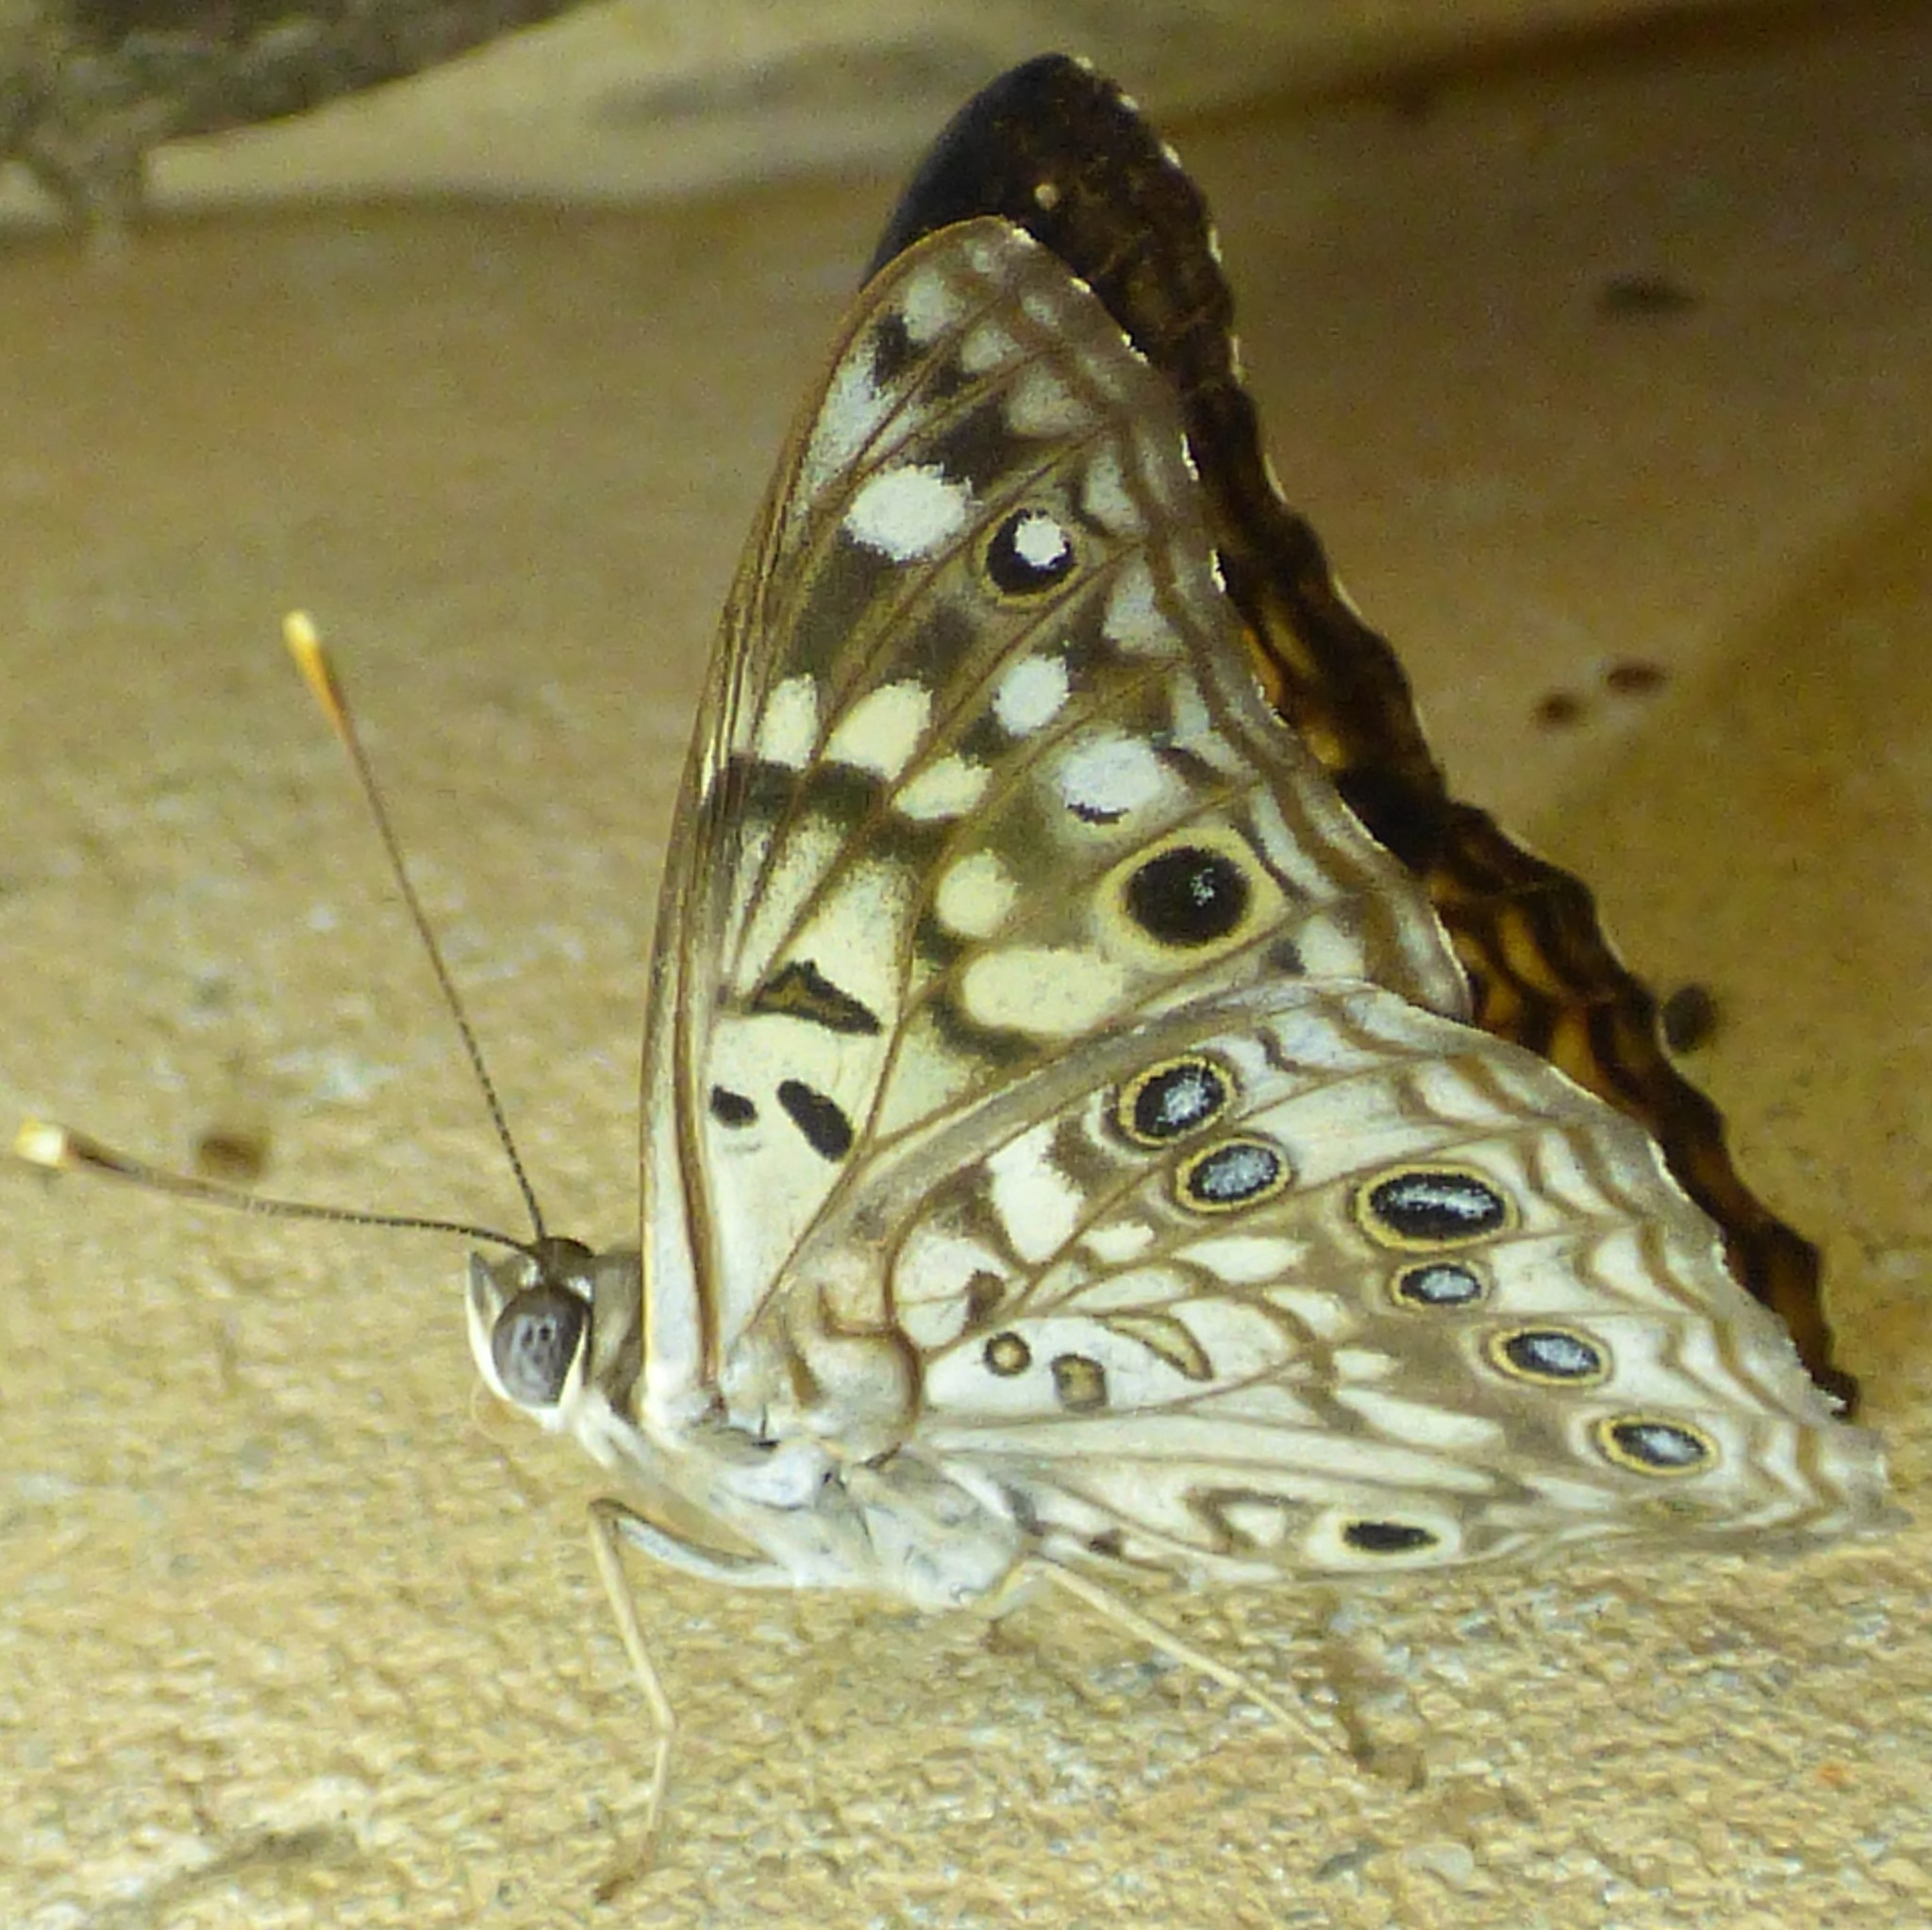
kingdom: Animalia
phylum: Arthropoda
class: Insecta
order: Lepidoptera
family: Nymphalidae
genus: Asterocampa
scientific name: Asterocampa celtis
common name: Hackberry emperor
